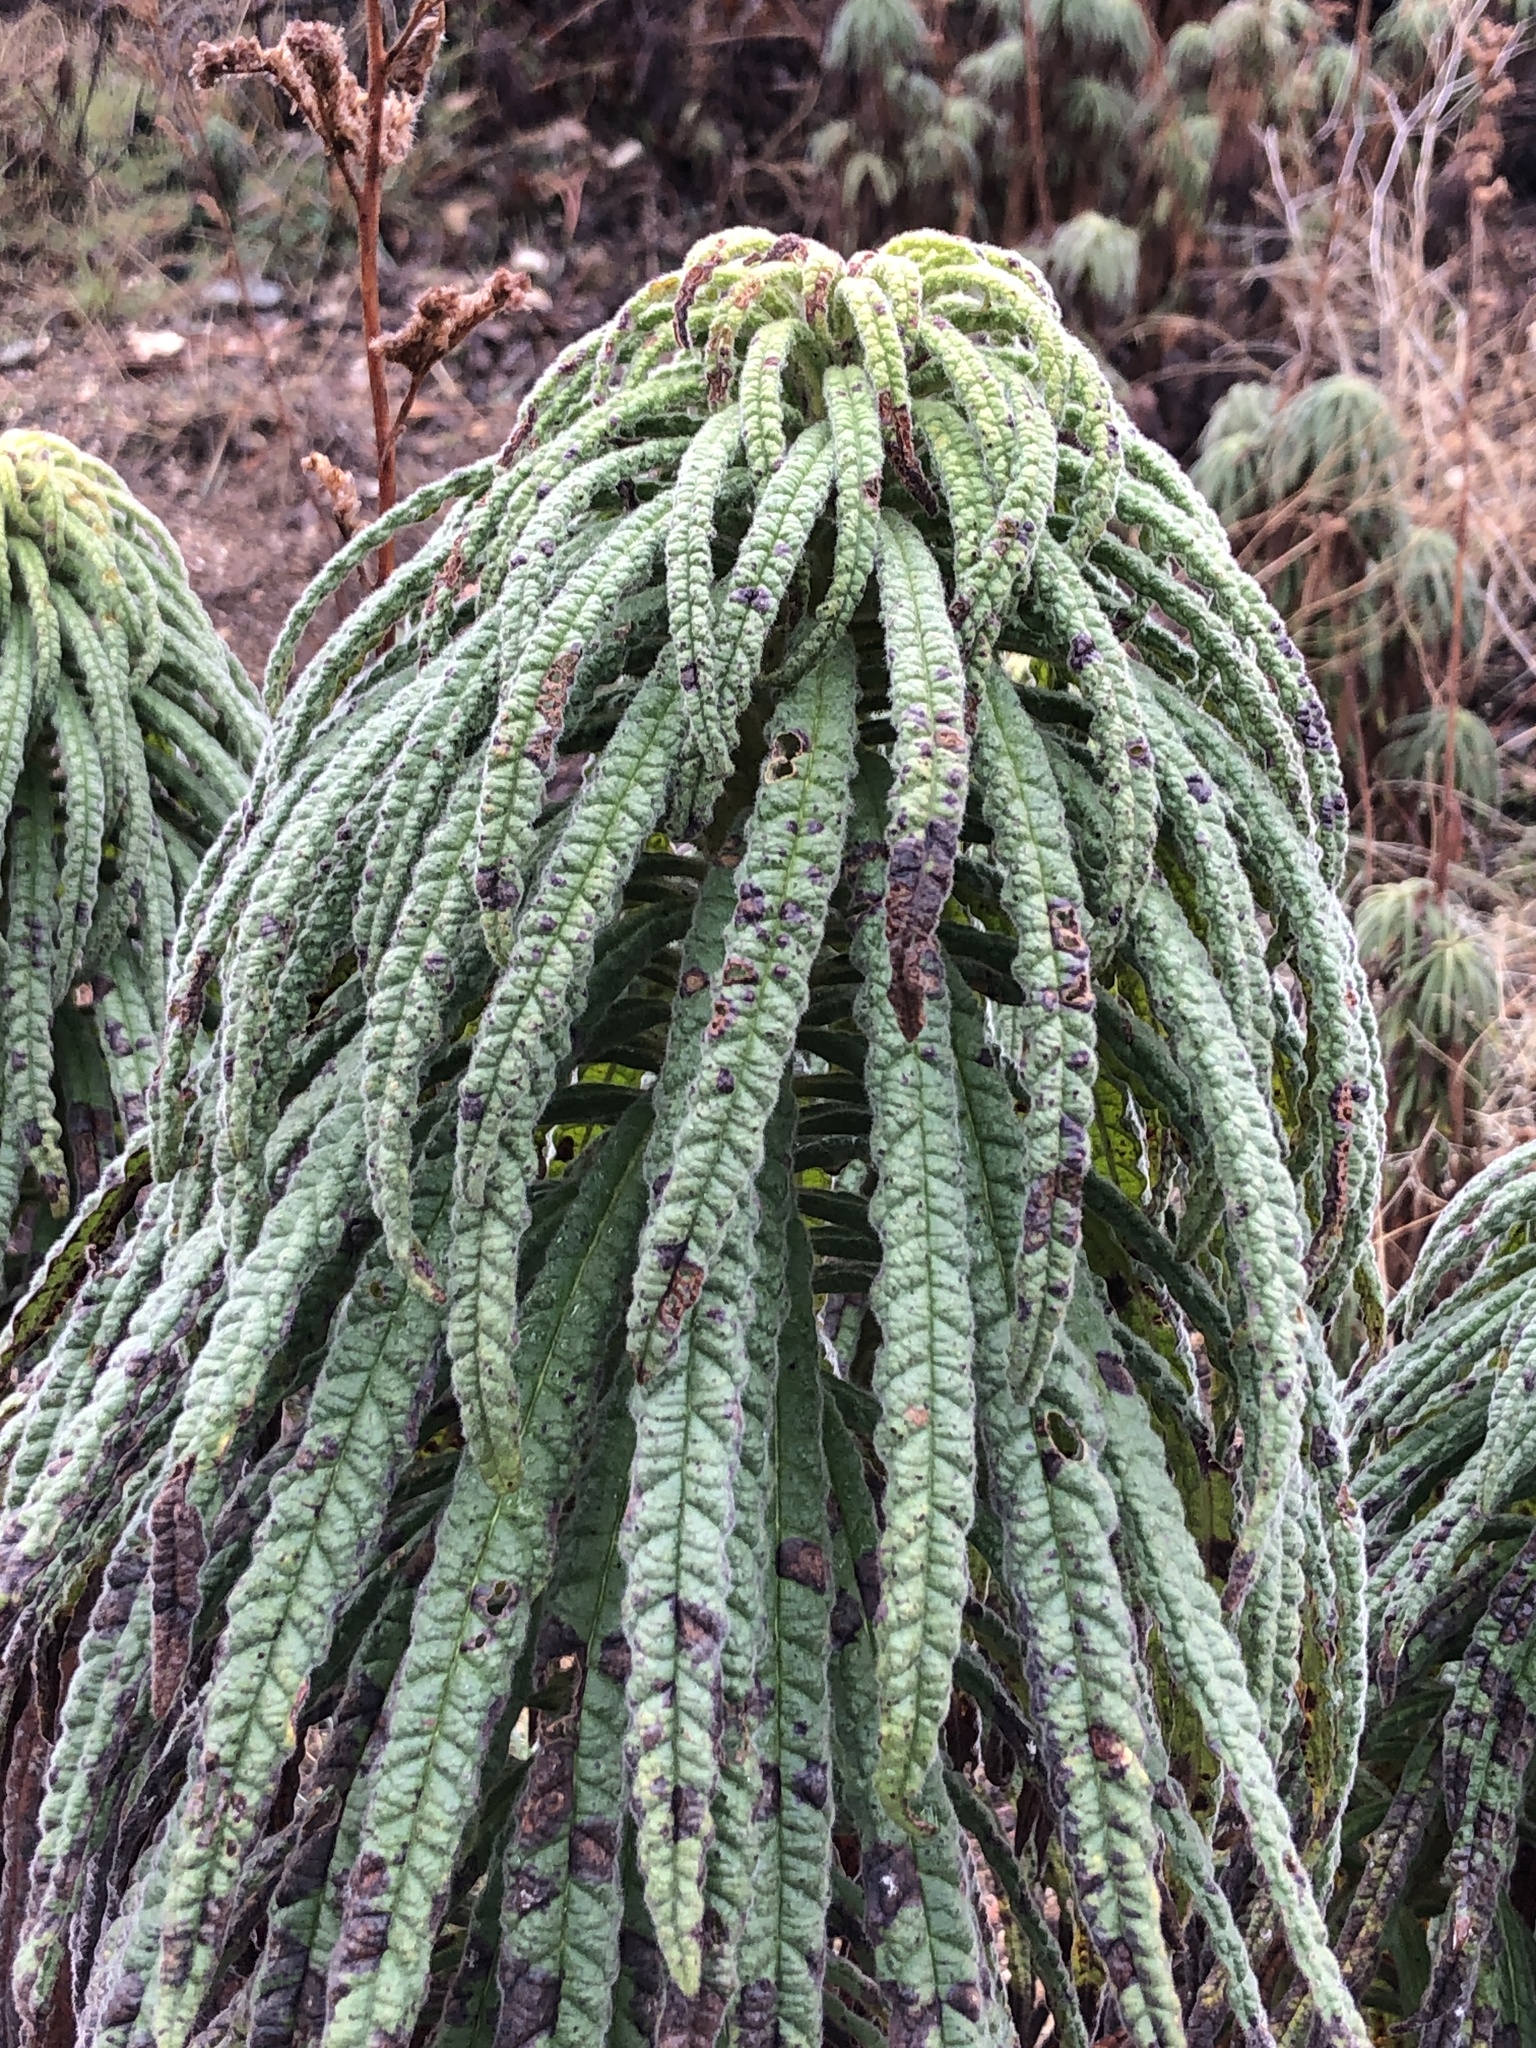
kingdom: Plantae
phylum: Tracheophyta
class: Magnoliopsida
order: Boraginales
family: Namaceae
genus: Turricula
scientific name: Turricula parryi
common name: Poodle-dog-bush
